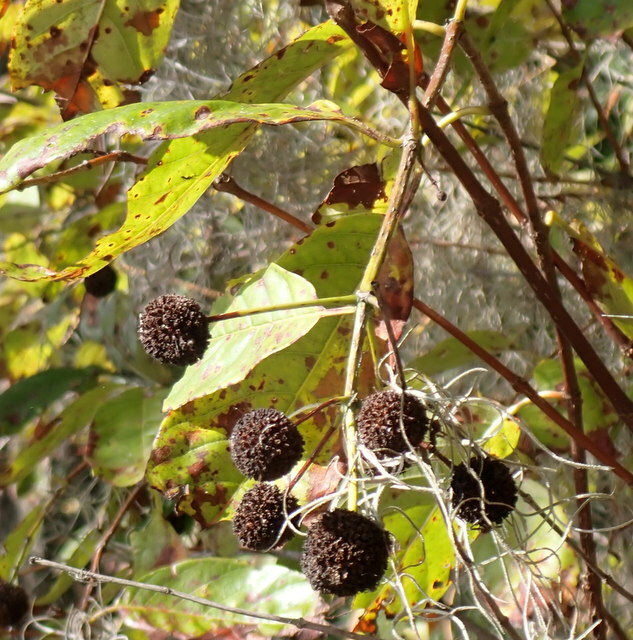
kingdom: Plantae
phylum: Tracheophyta
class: Magnoliopsida
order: Gentianales
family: Rubiaceae
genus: Cephalanthus
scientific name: Cephalanthus occidentalis
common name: Button-willow
